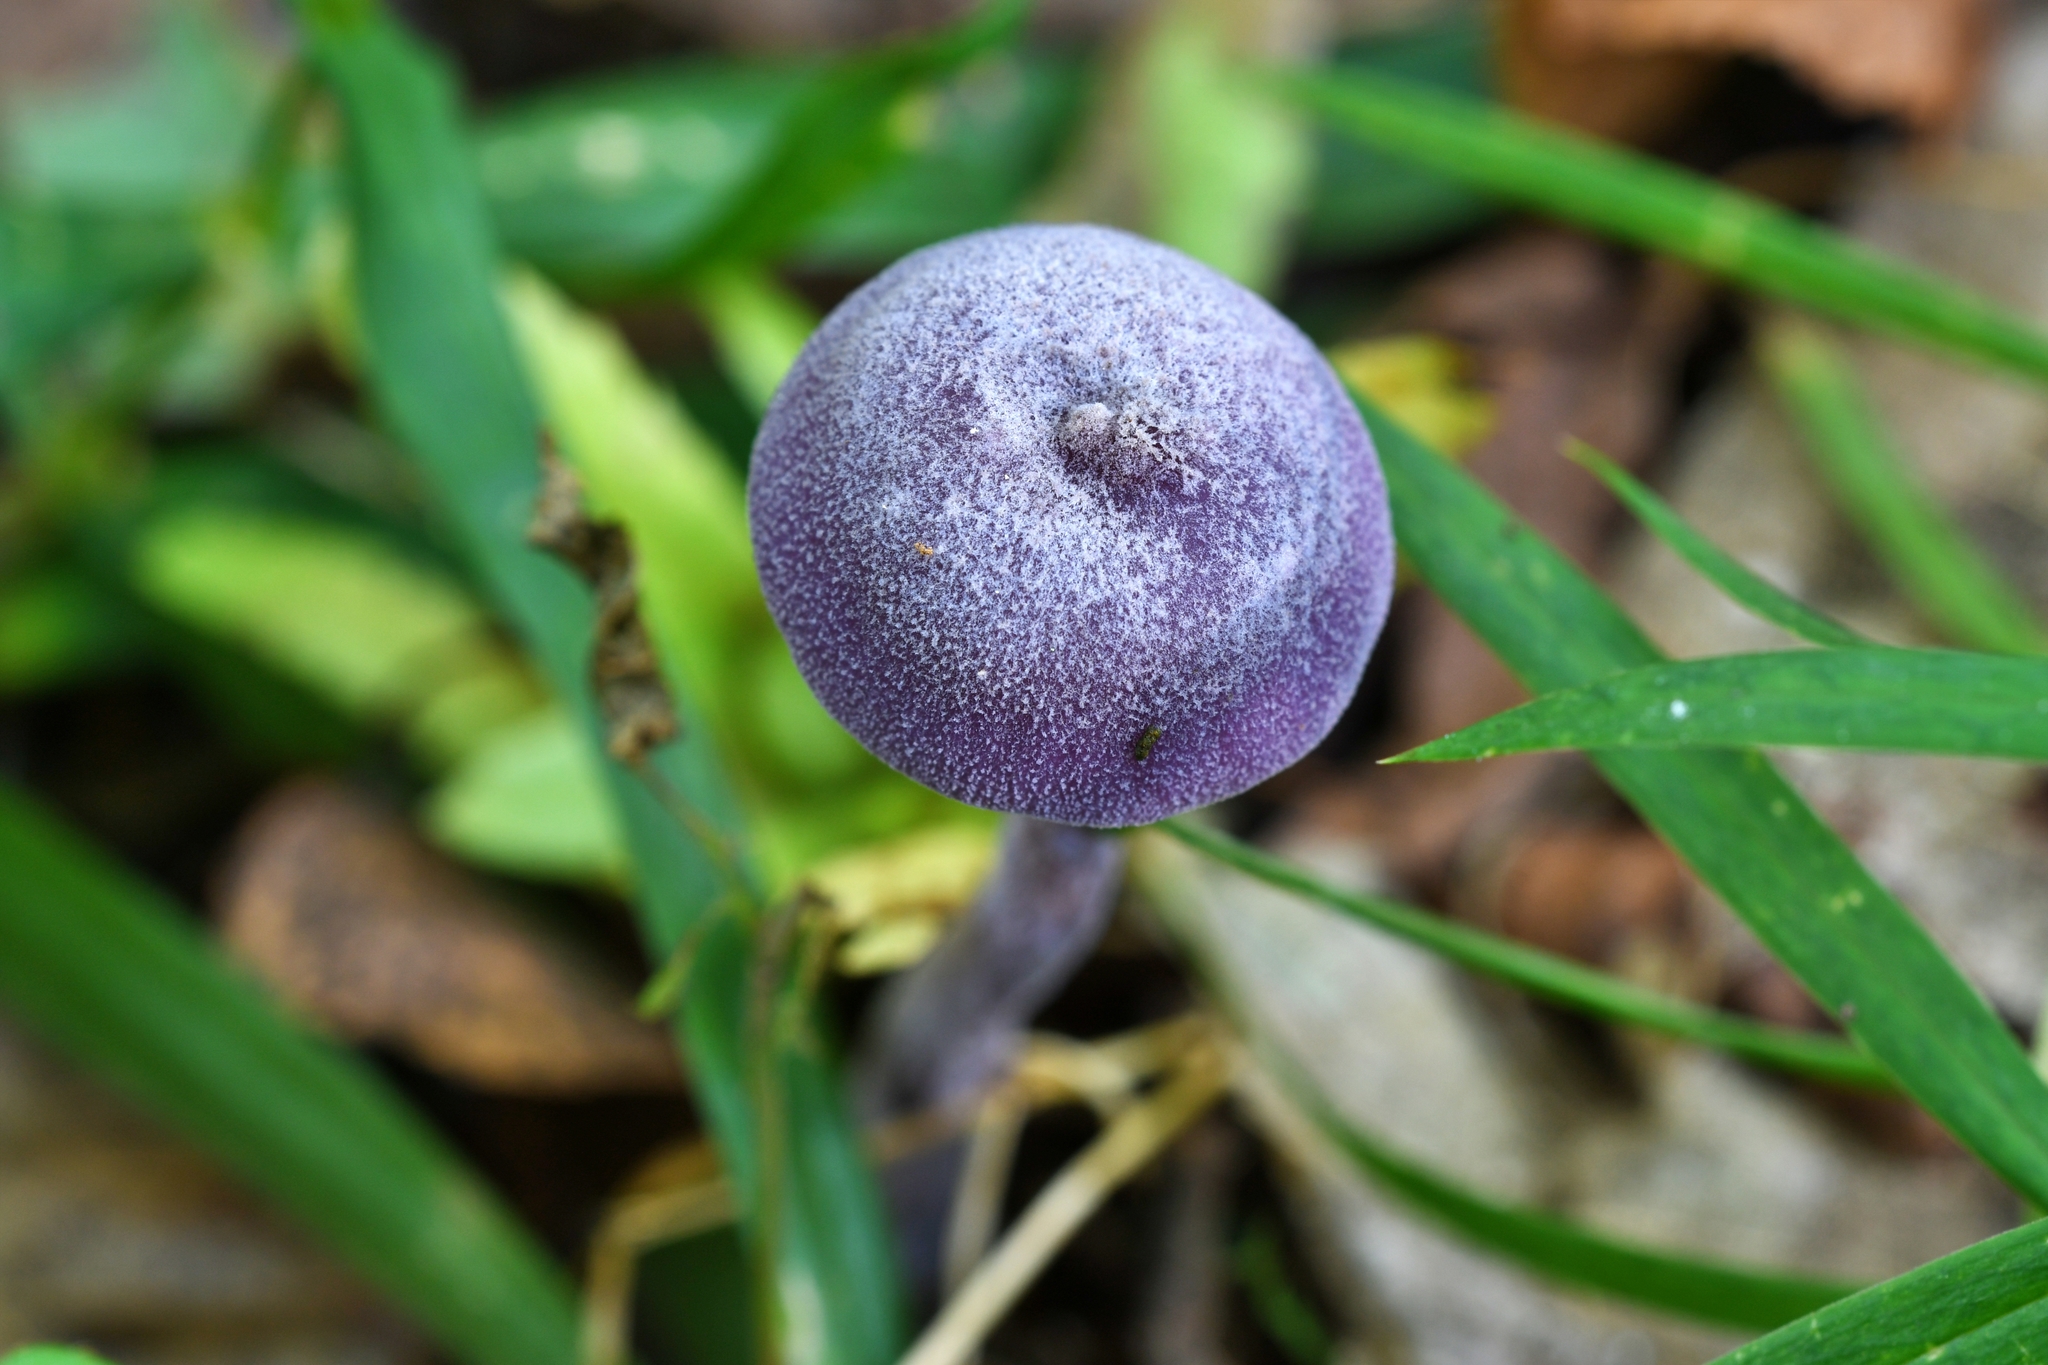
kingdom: Fungi
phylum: Basidiomycota
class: Agaricomycetes
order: Agaricales
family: Hydnangiaceae
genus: Laccaria
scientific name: Laccaria amethystina
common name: Amethyst deceiver
